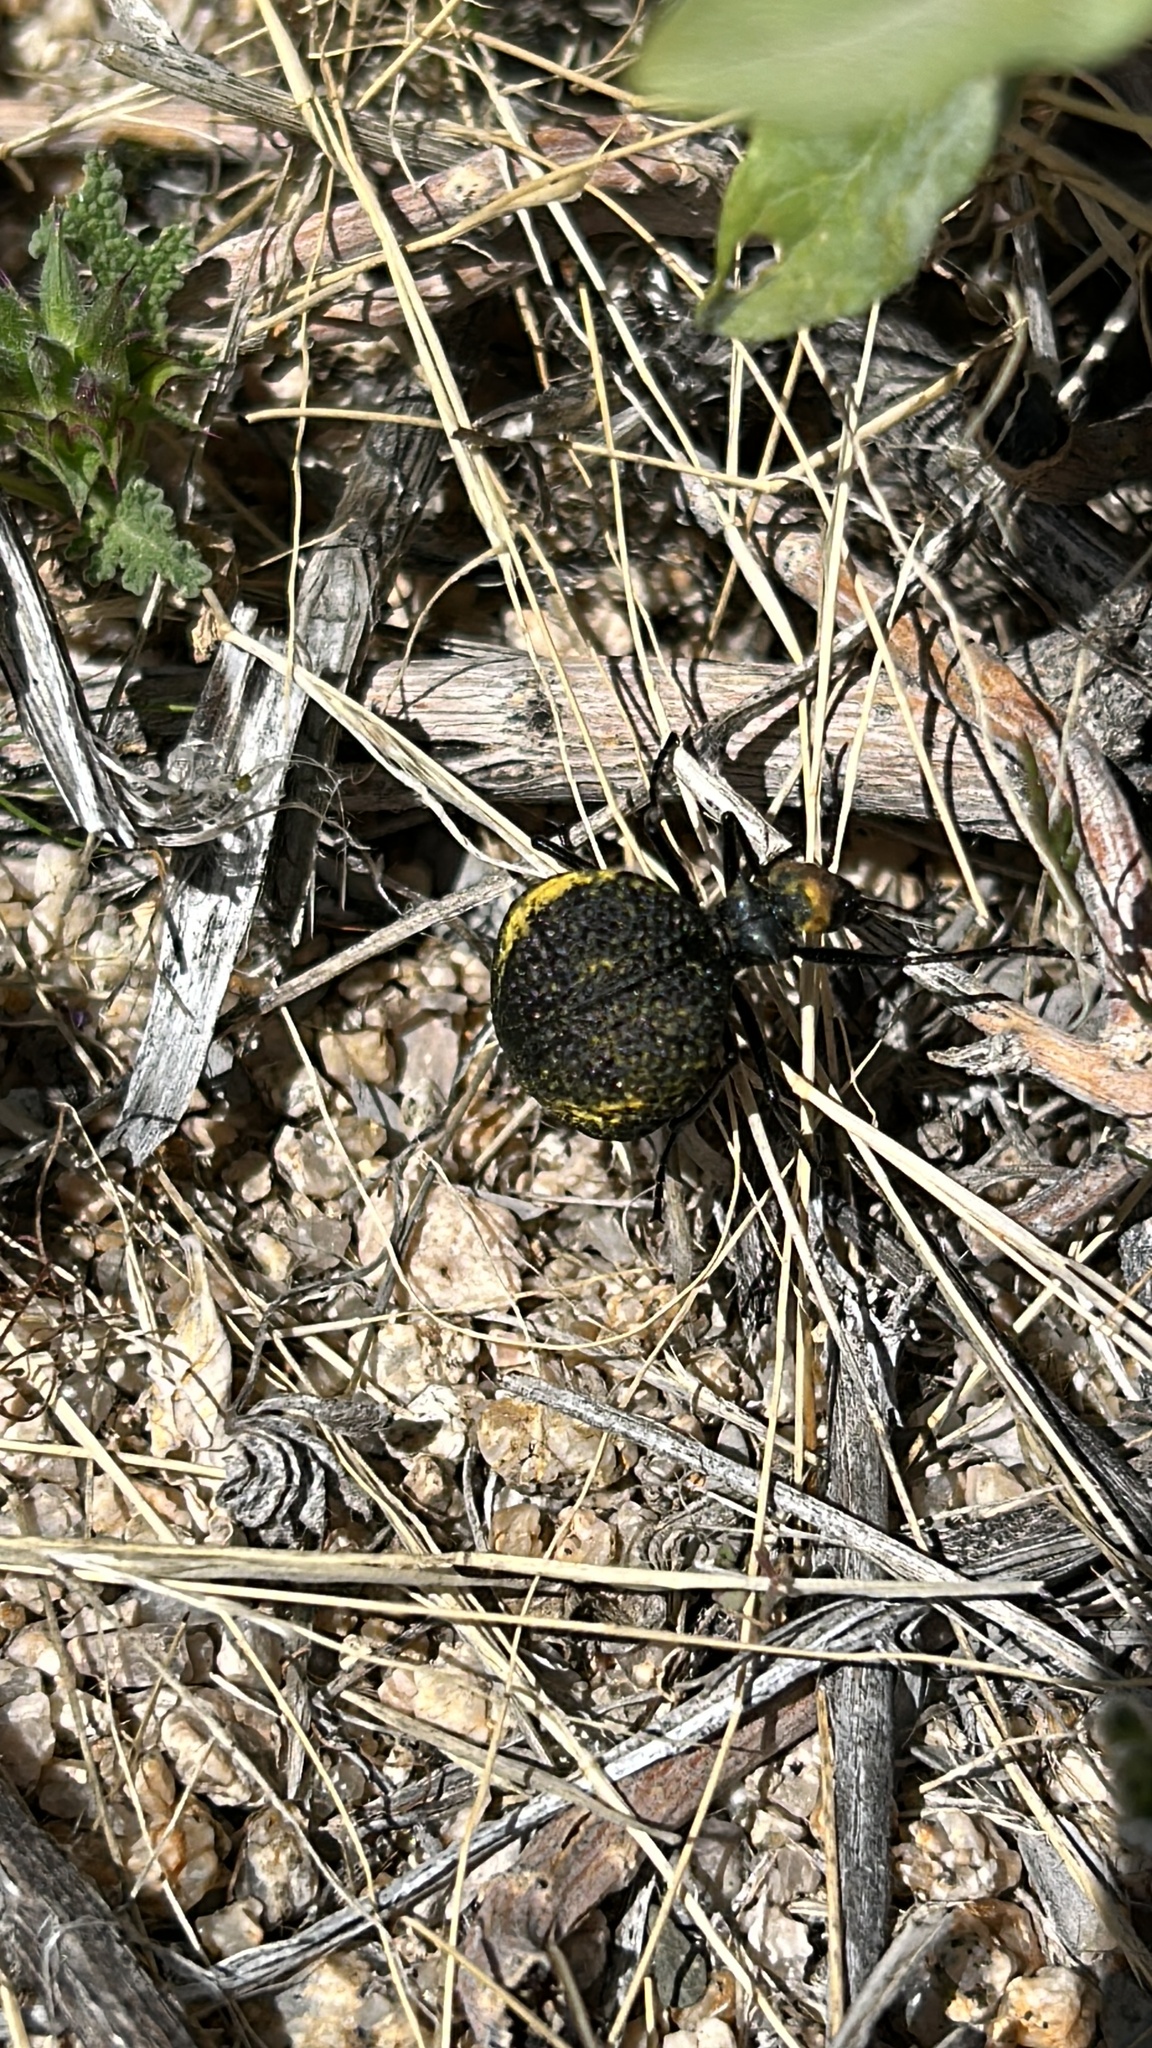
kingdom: Animalia
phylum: Arthropoda
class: Insecta
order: Coleoptera
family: Meloidae
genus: Cysteodemus
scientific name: Cysteodemus armatus
